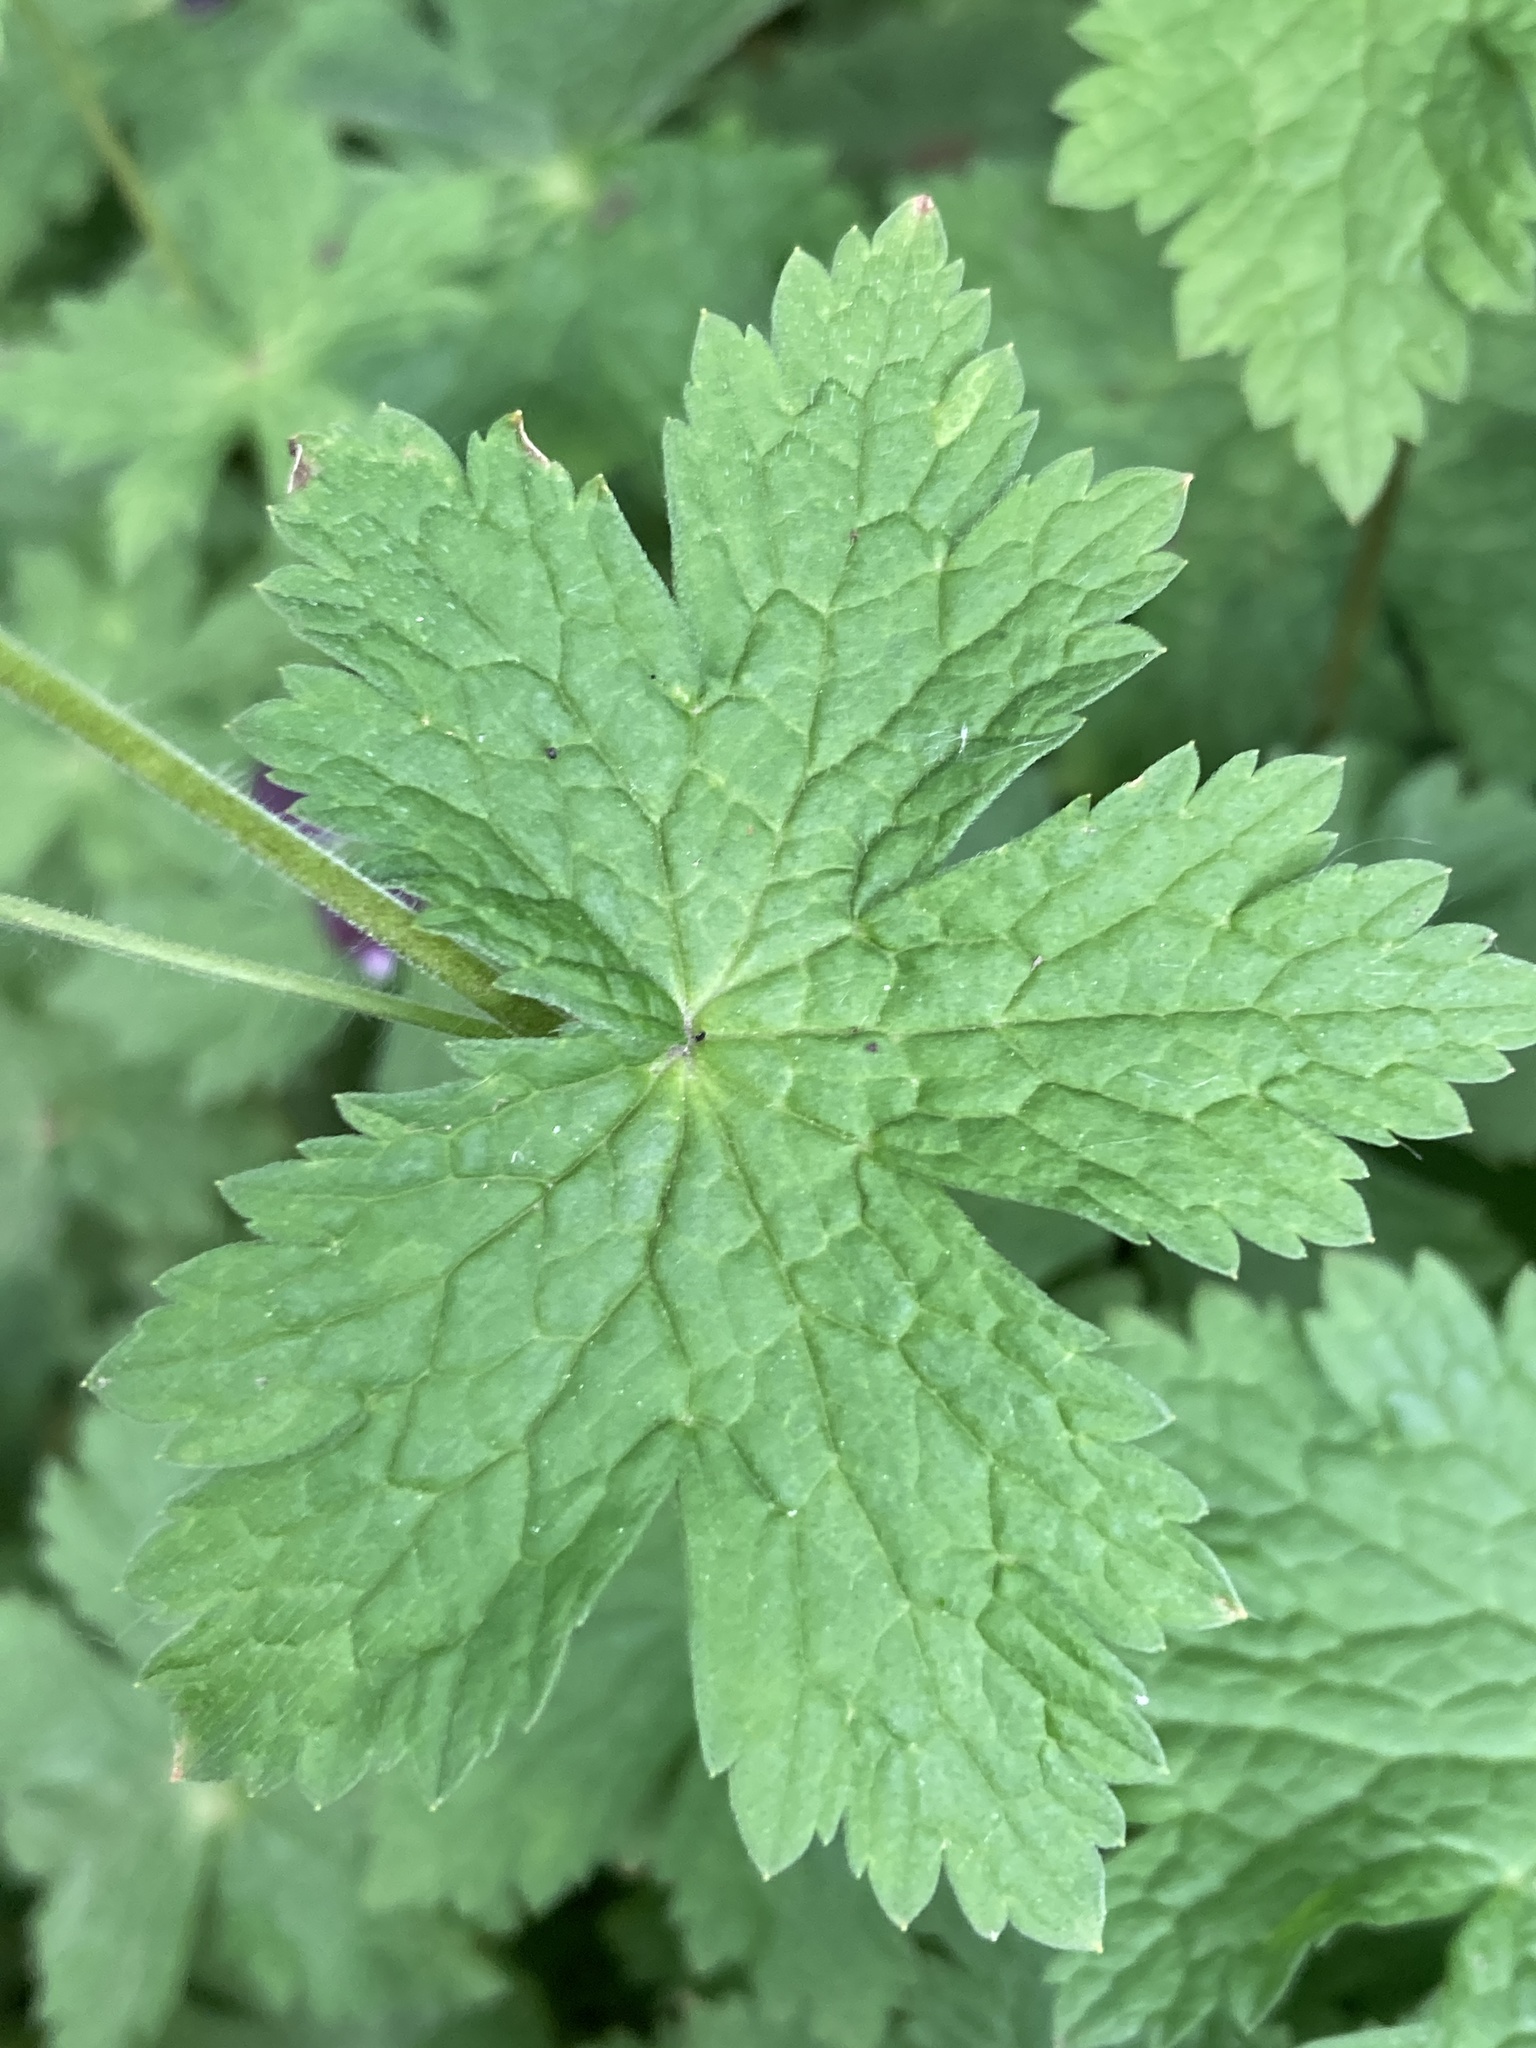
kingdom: Plantae
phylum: Tracheophyta
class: Magnoliopsida
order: Geraniales
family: Geraniaceae
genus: Geranium
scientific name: Geranium phaeum
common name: Dusky crane's-bill
